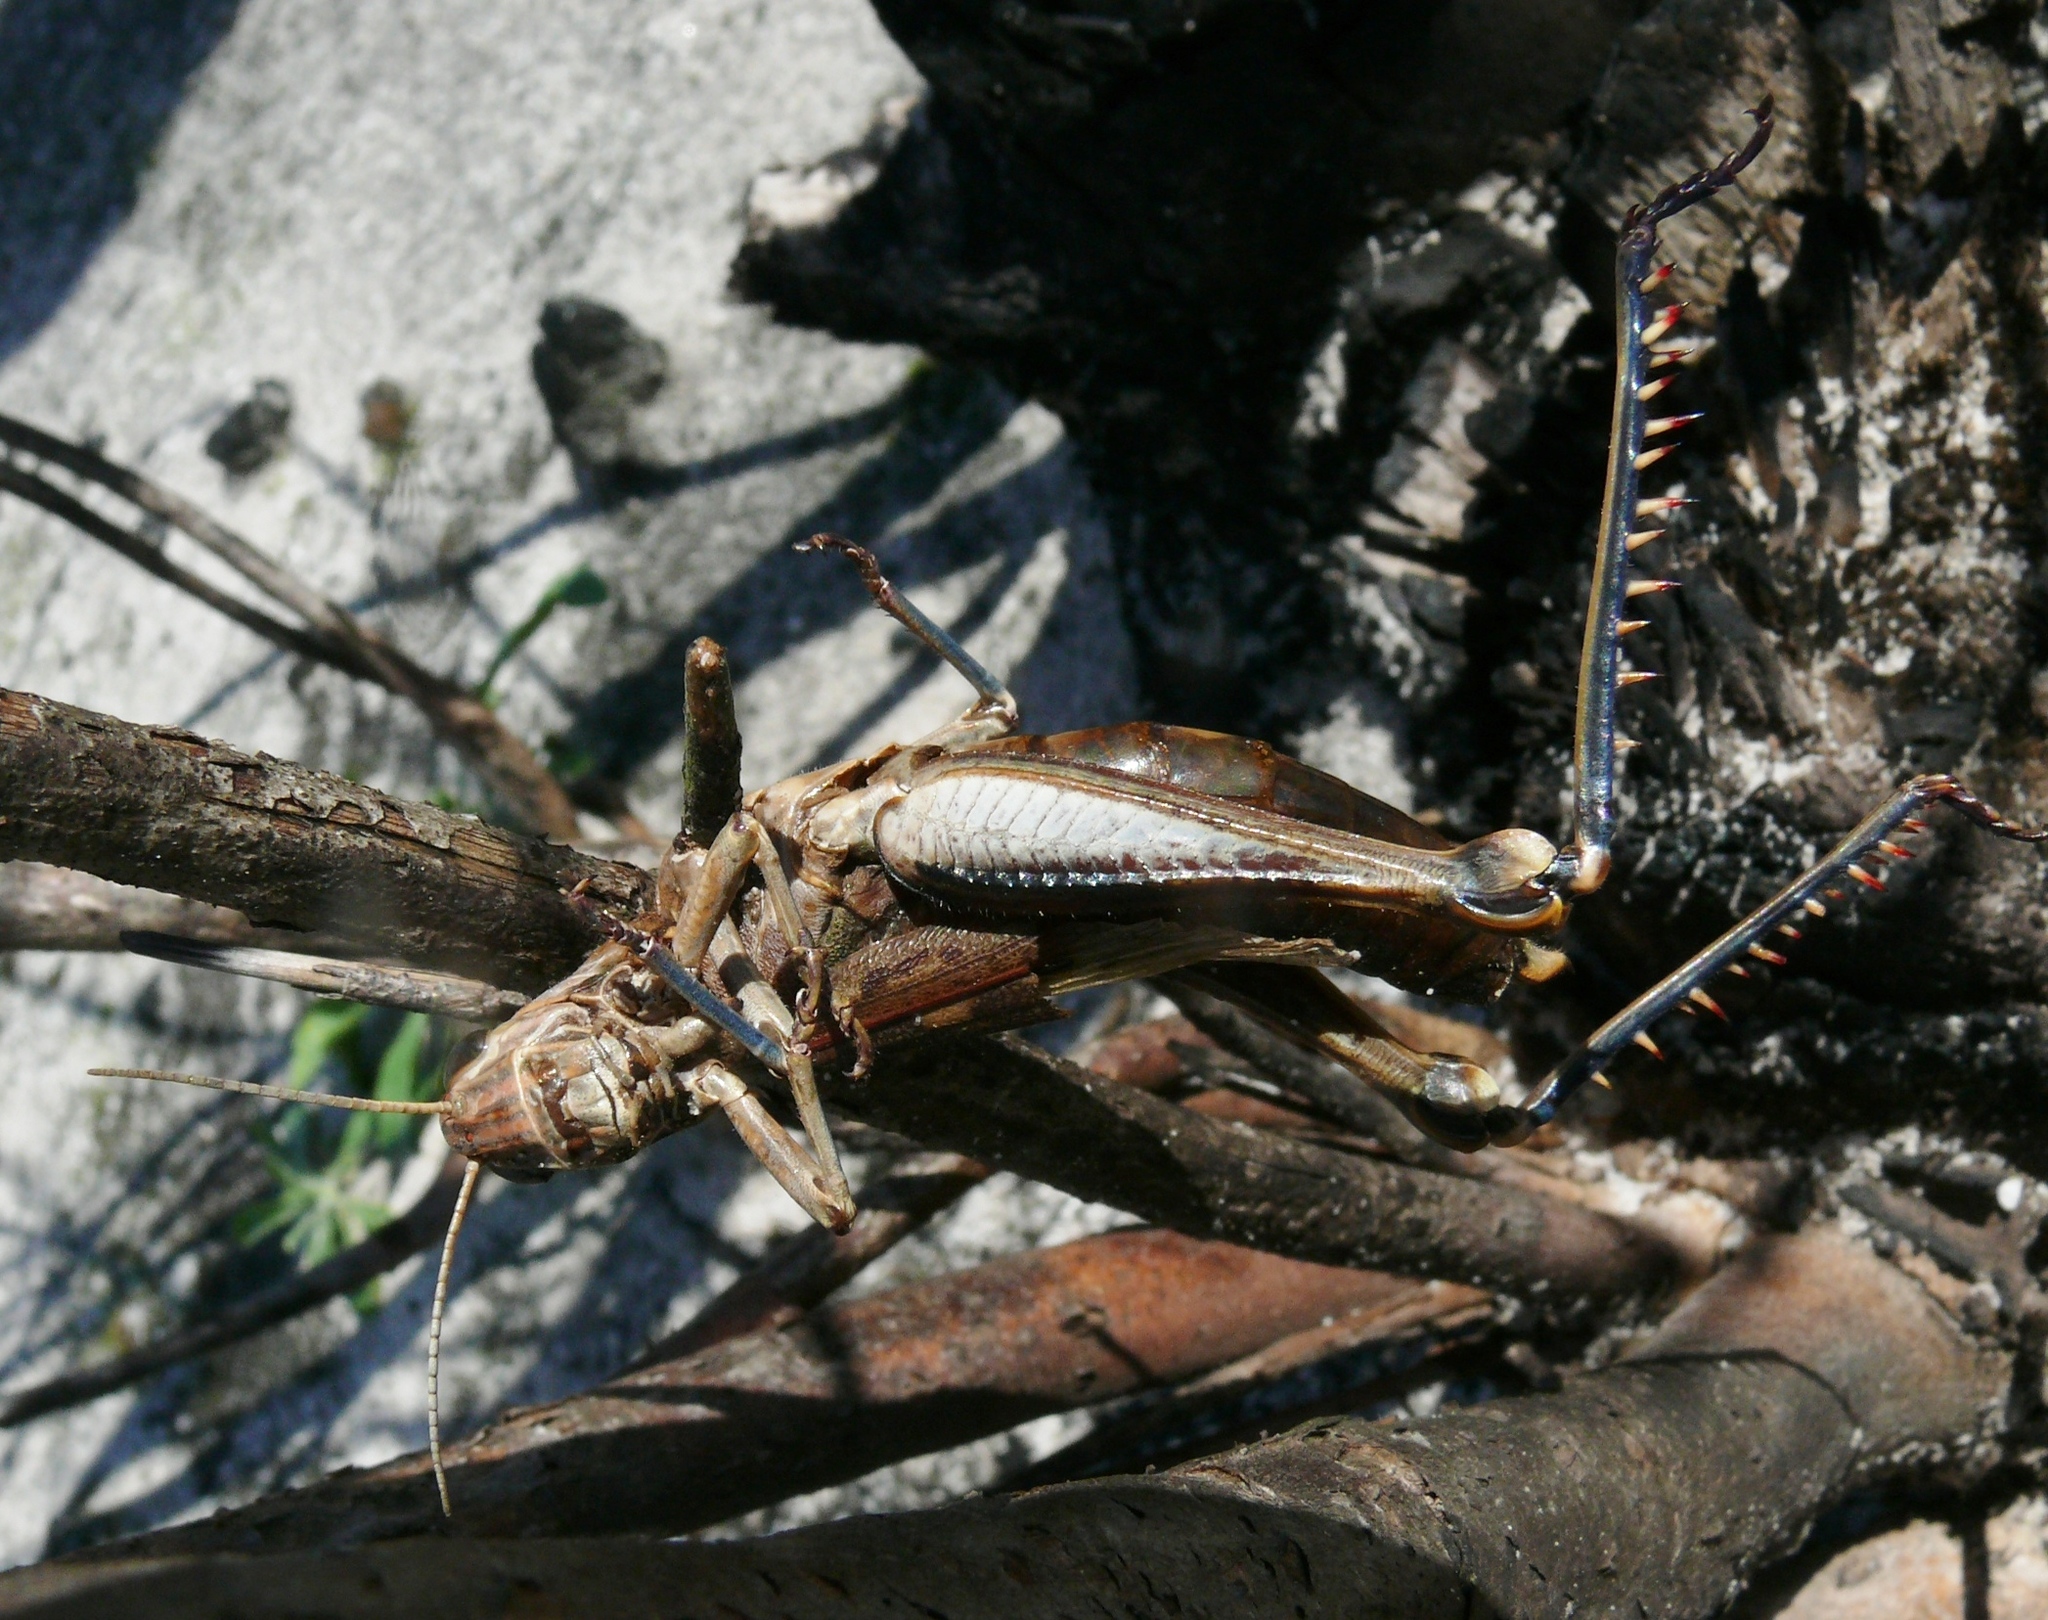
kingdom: Animalia
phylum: Chordata
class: Aves
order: Passeriformes
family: Laniidae
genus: Lanius
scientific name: Lanius collaris
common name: Southern fiscal
